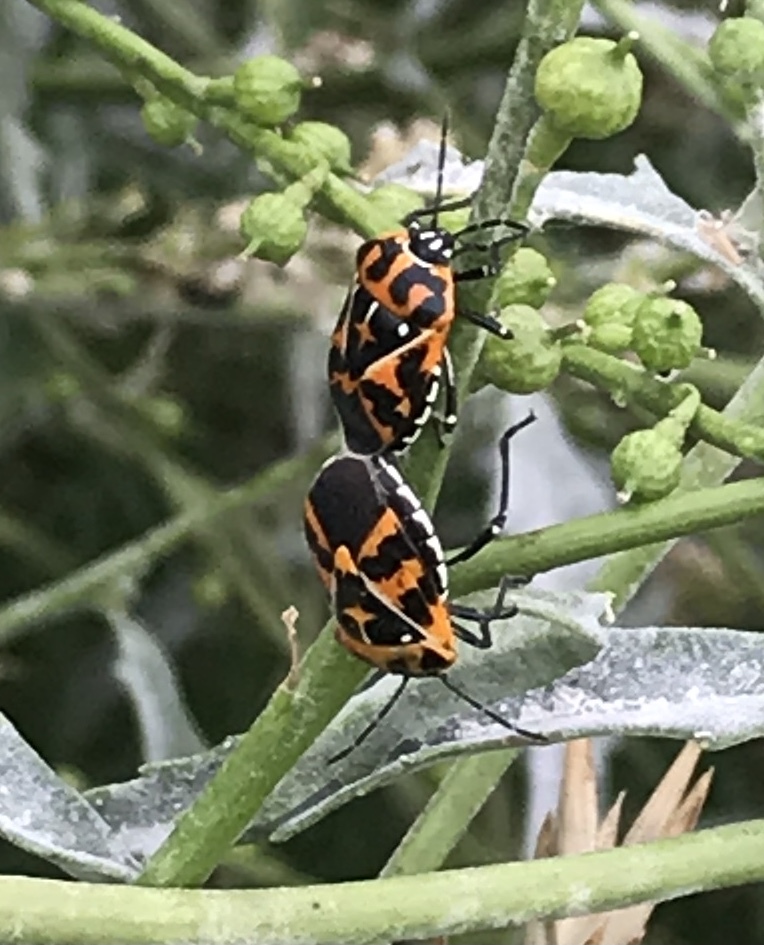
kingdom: Animalia
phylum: Arthropoda
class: Insecta
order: Hemiptera
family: Pentatomidae
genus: Murgantia
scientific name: Murgantia histrionica
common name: Harlequin bug
